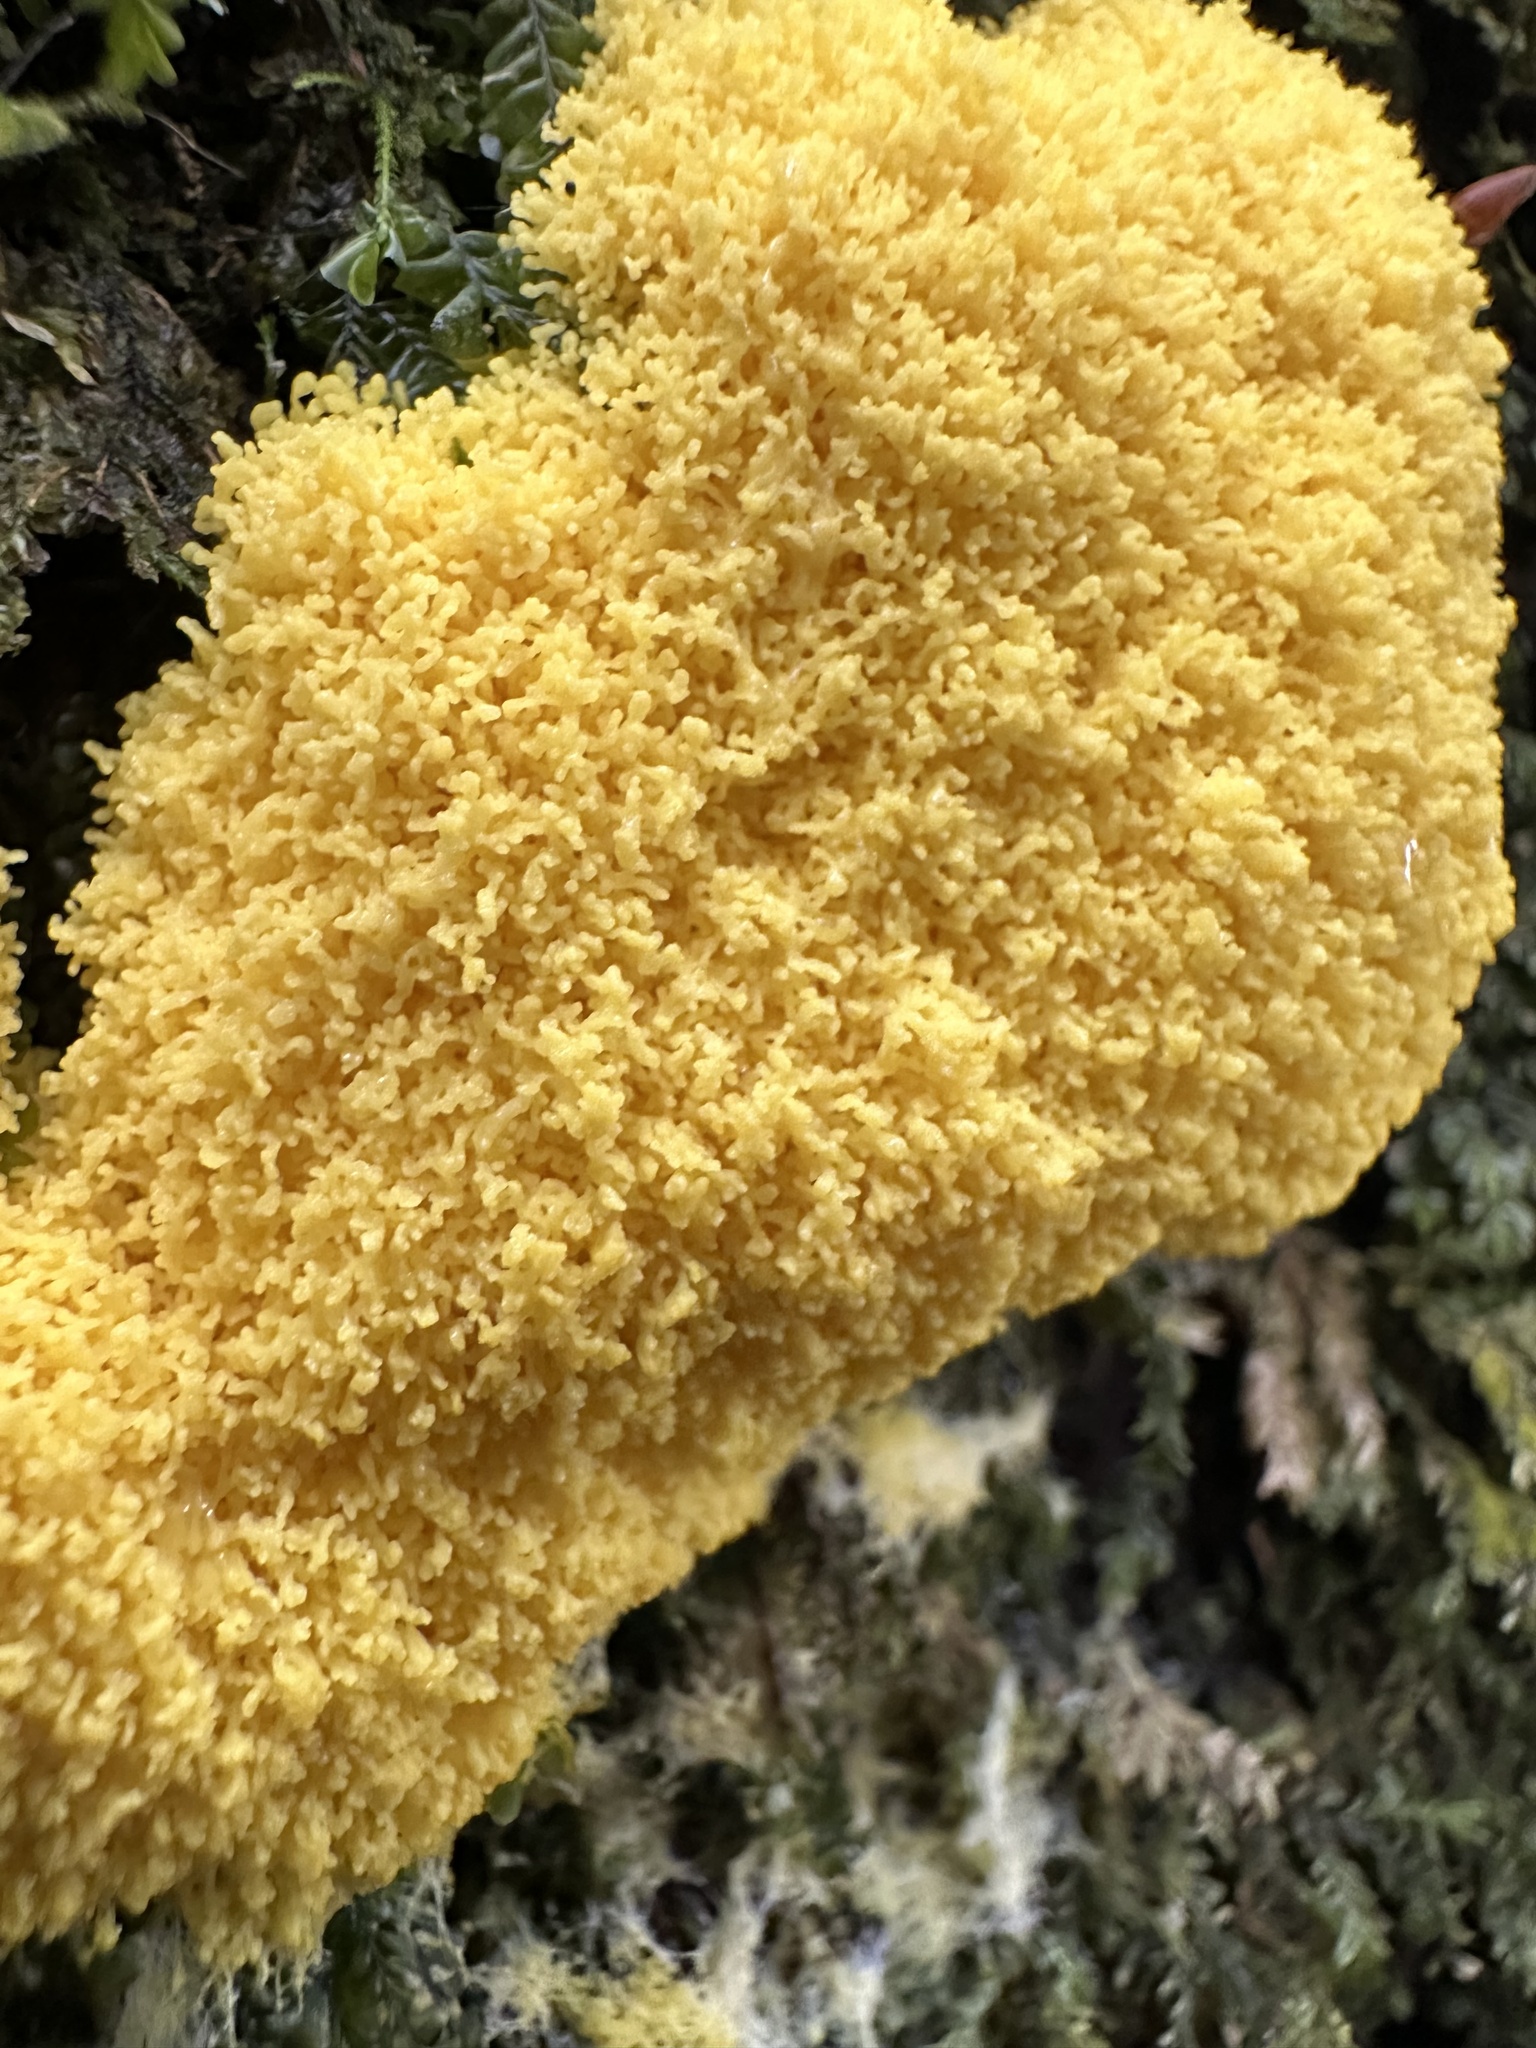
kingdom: Protozoa
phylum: Mycetozoa
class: Myxomycetes
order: Physarales
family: Physaraceae
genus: Fuligo
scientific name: Fuligo septica
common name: Dog vomit slime mold
